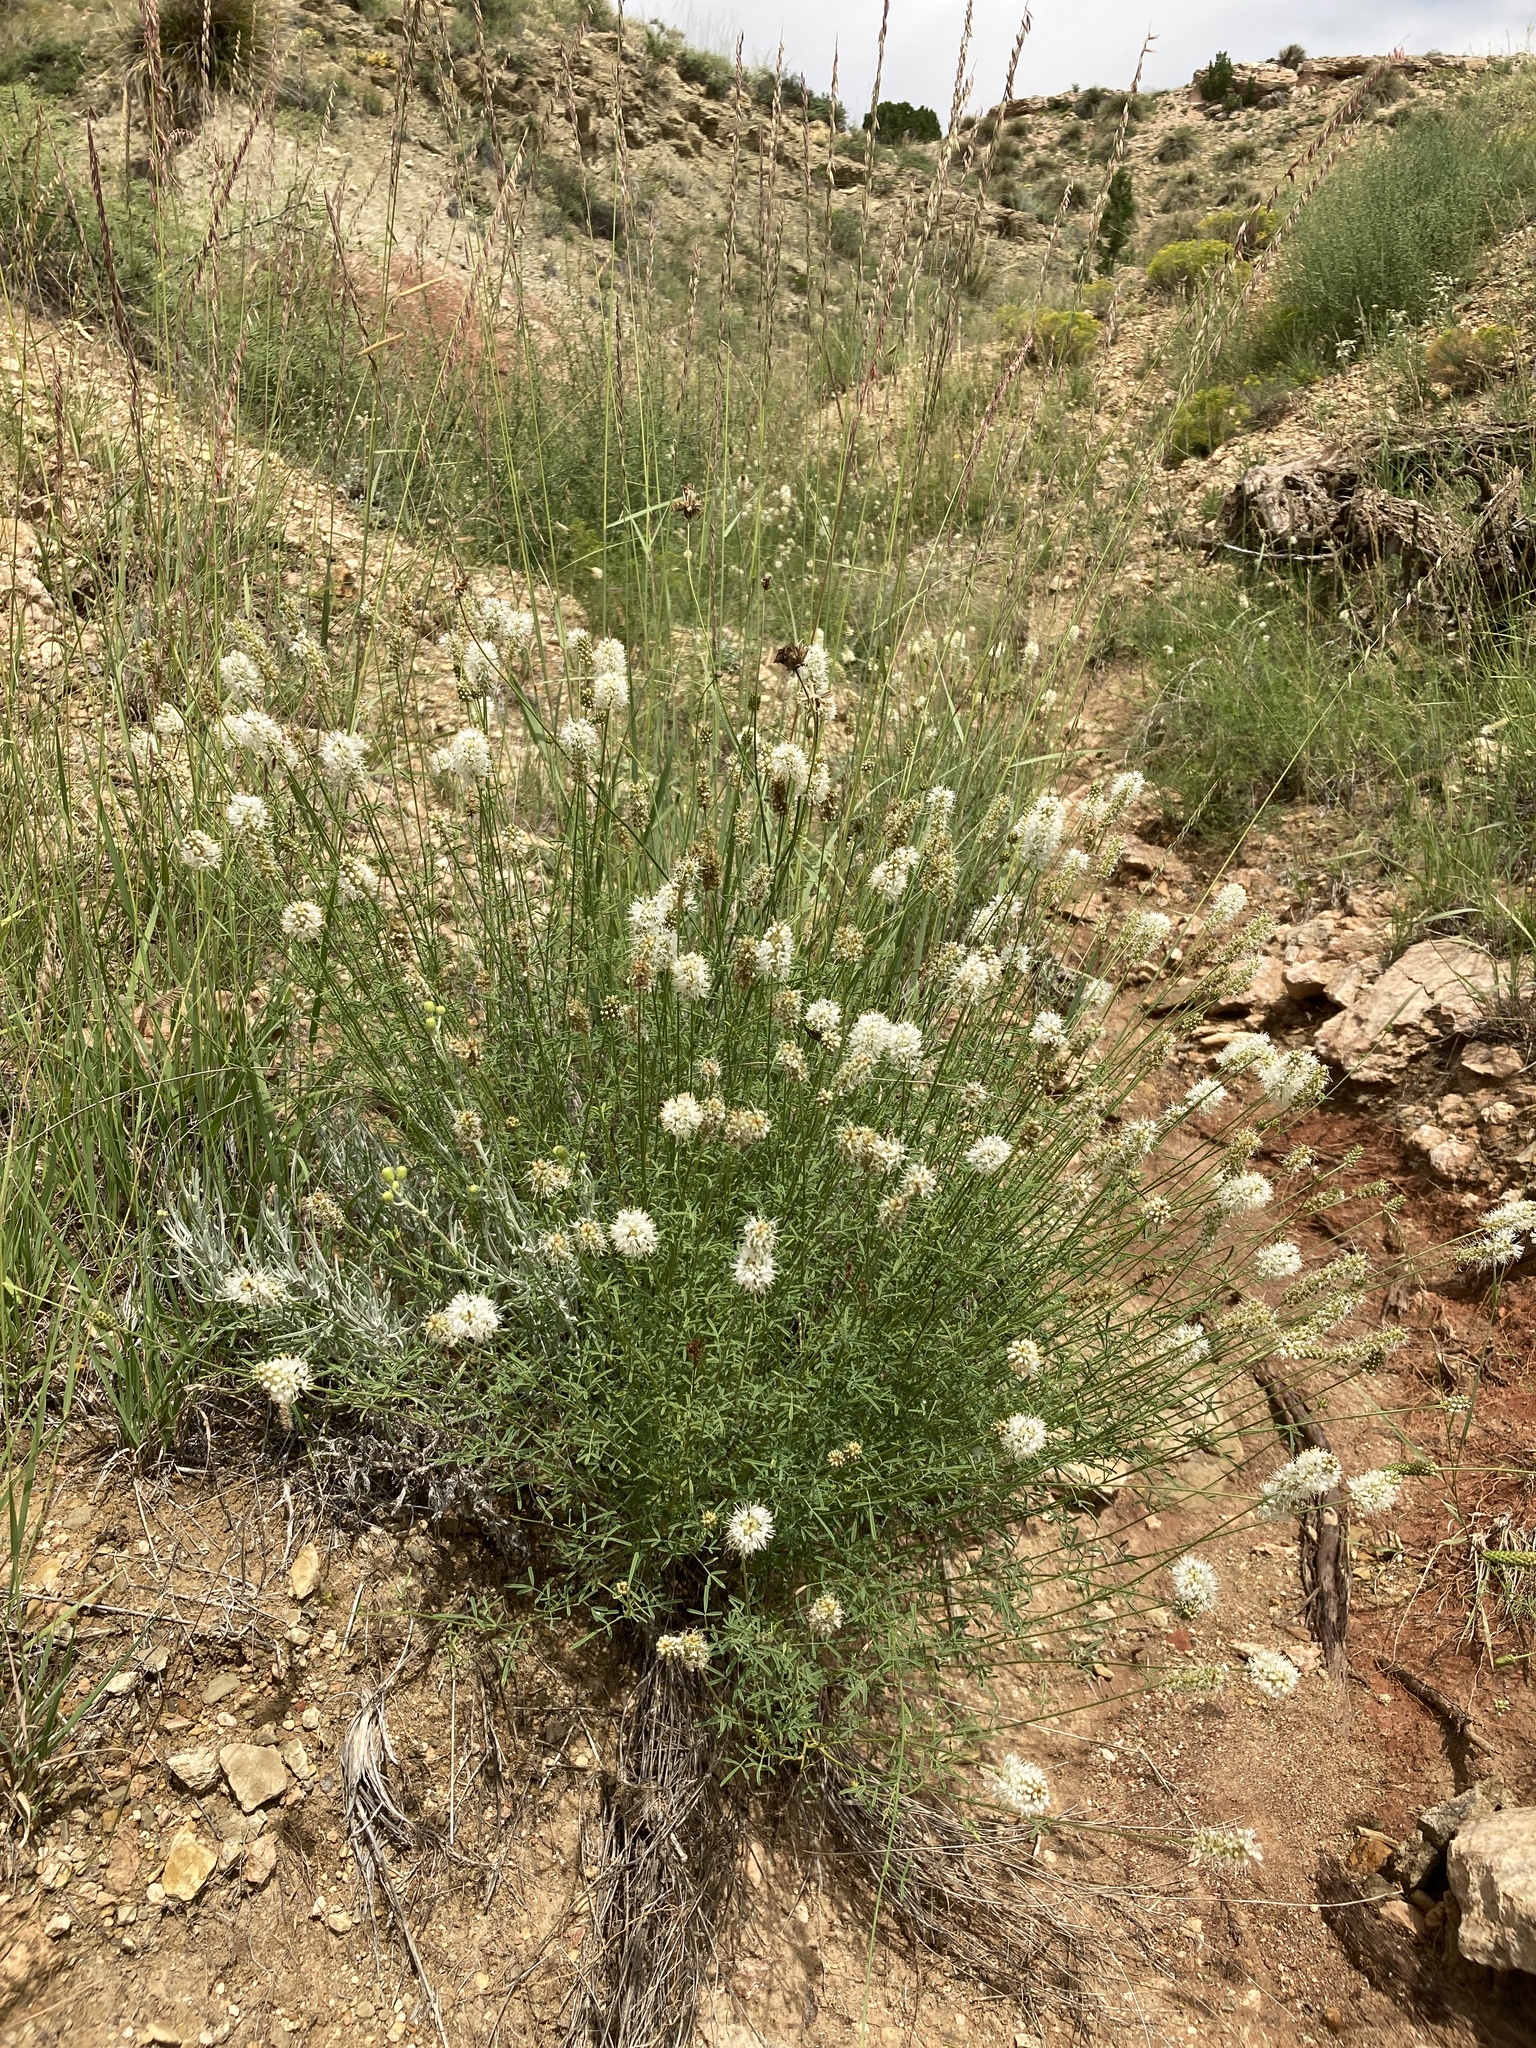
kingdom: Plantae
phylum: Tracheophyta
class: Magnoliopsida
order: Fabales
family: Fabaceae
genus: Dalea
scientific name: Dalea candida
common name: White prairie-clover
